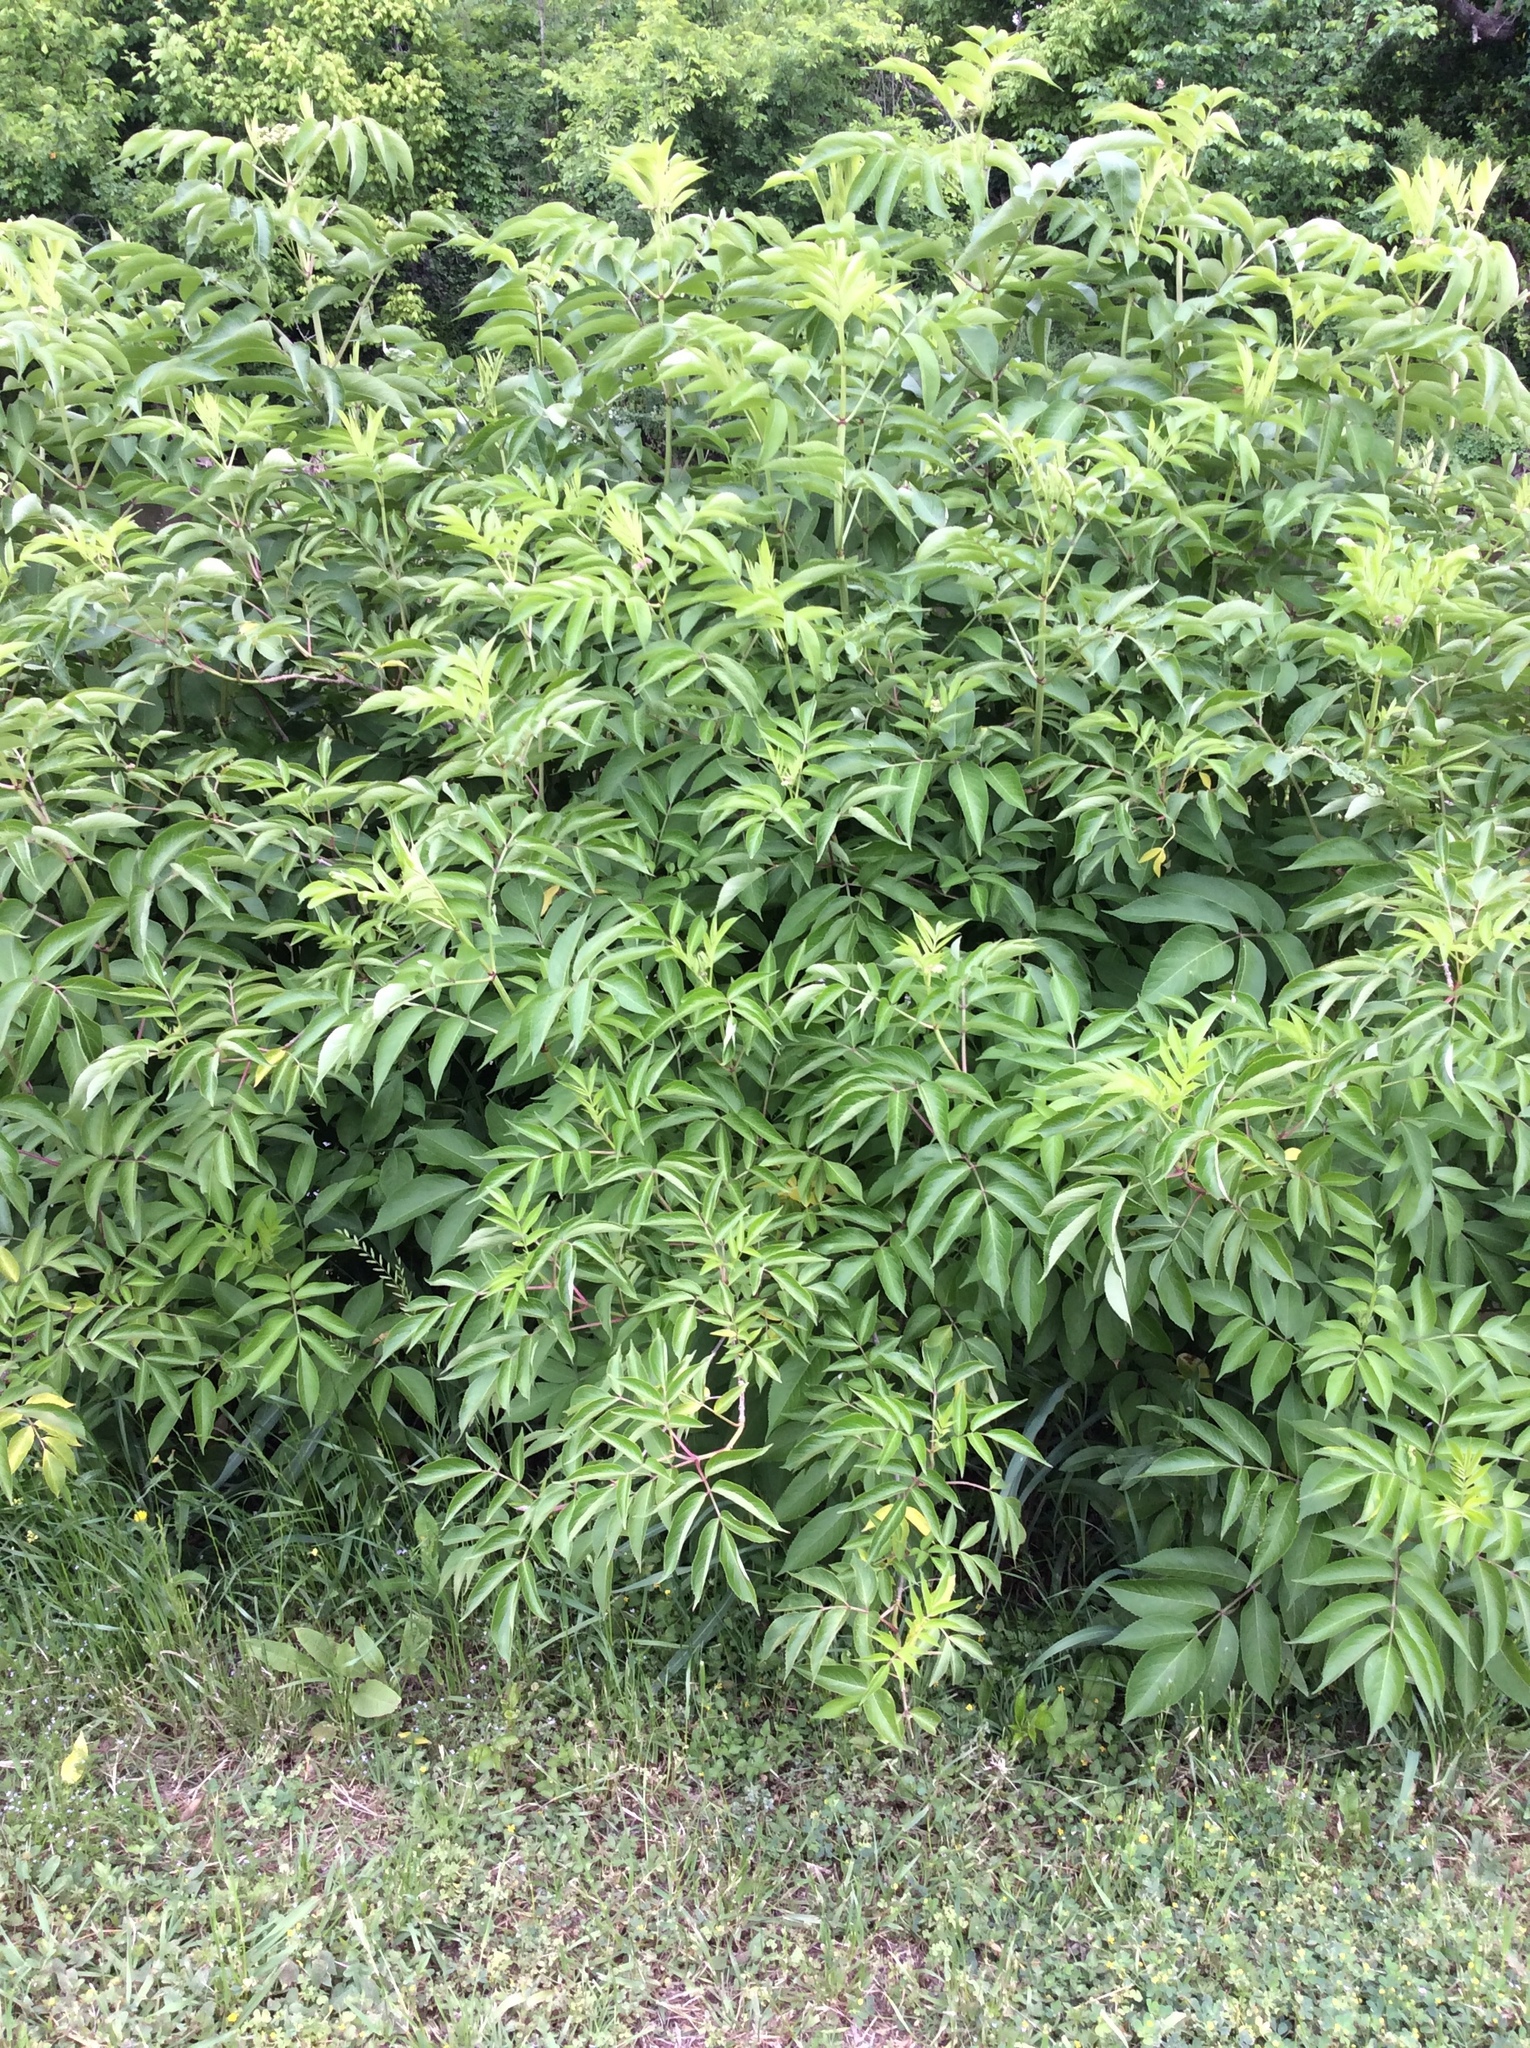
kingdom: Plantae
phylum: Tracheophyta
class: Magnoliopsida
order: Dipsacales
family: Viburnaceae
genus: Sambucus
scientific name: Sambucus canadensis
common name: American elder
